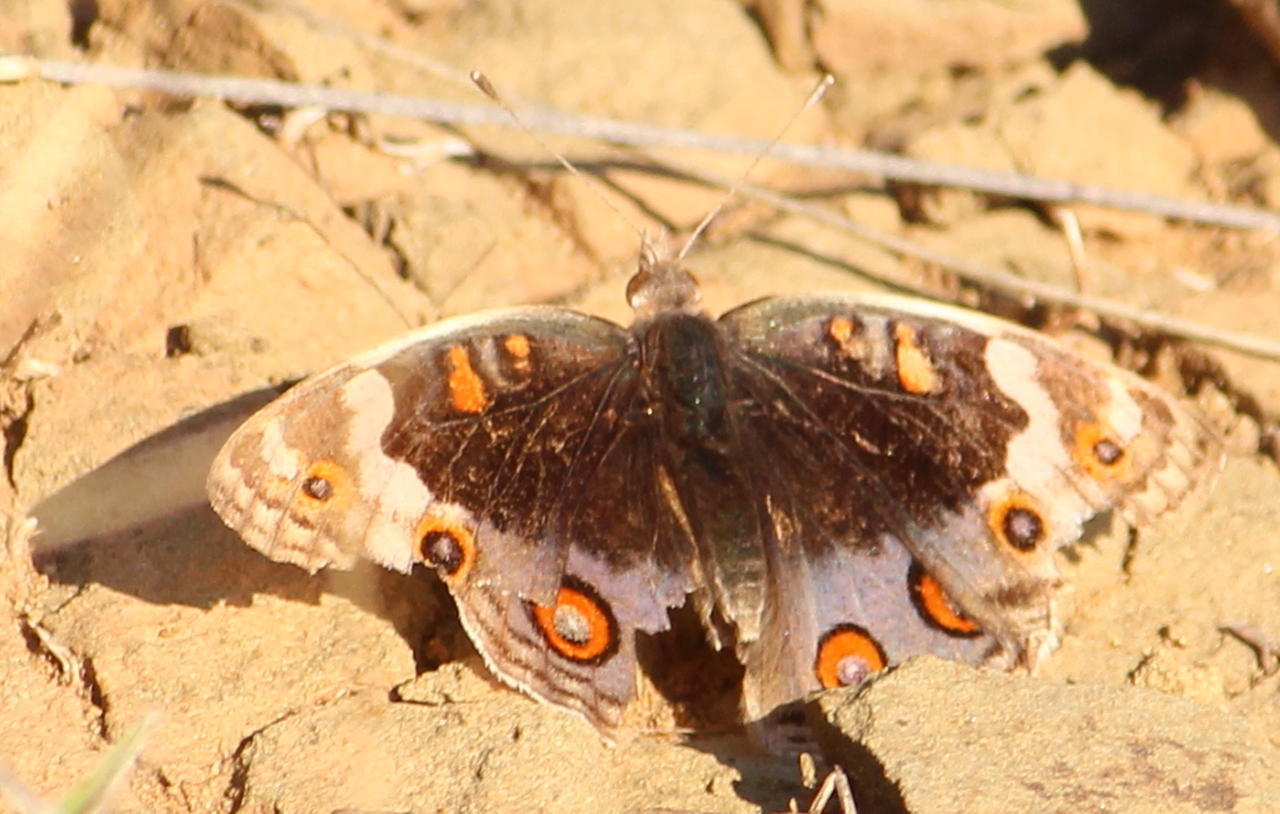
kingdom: Animalia
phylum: Arthropoda
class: Insecta
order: Lepidoptera
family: Nymphalidae
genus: Junonia
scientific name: Junonia orithya
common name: Blue pansy
